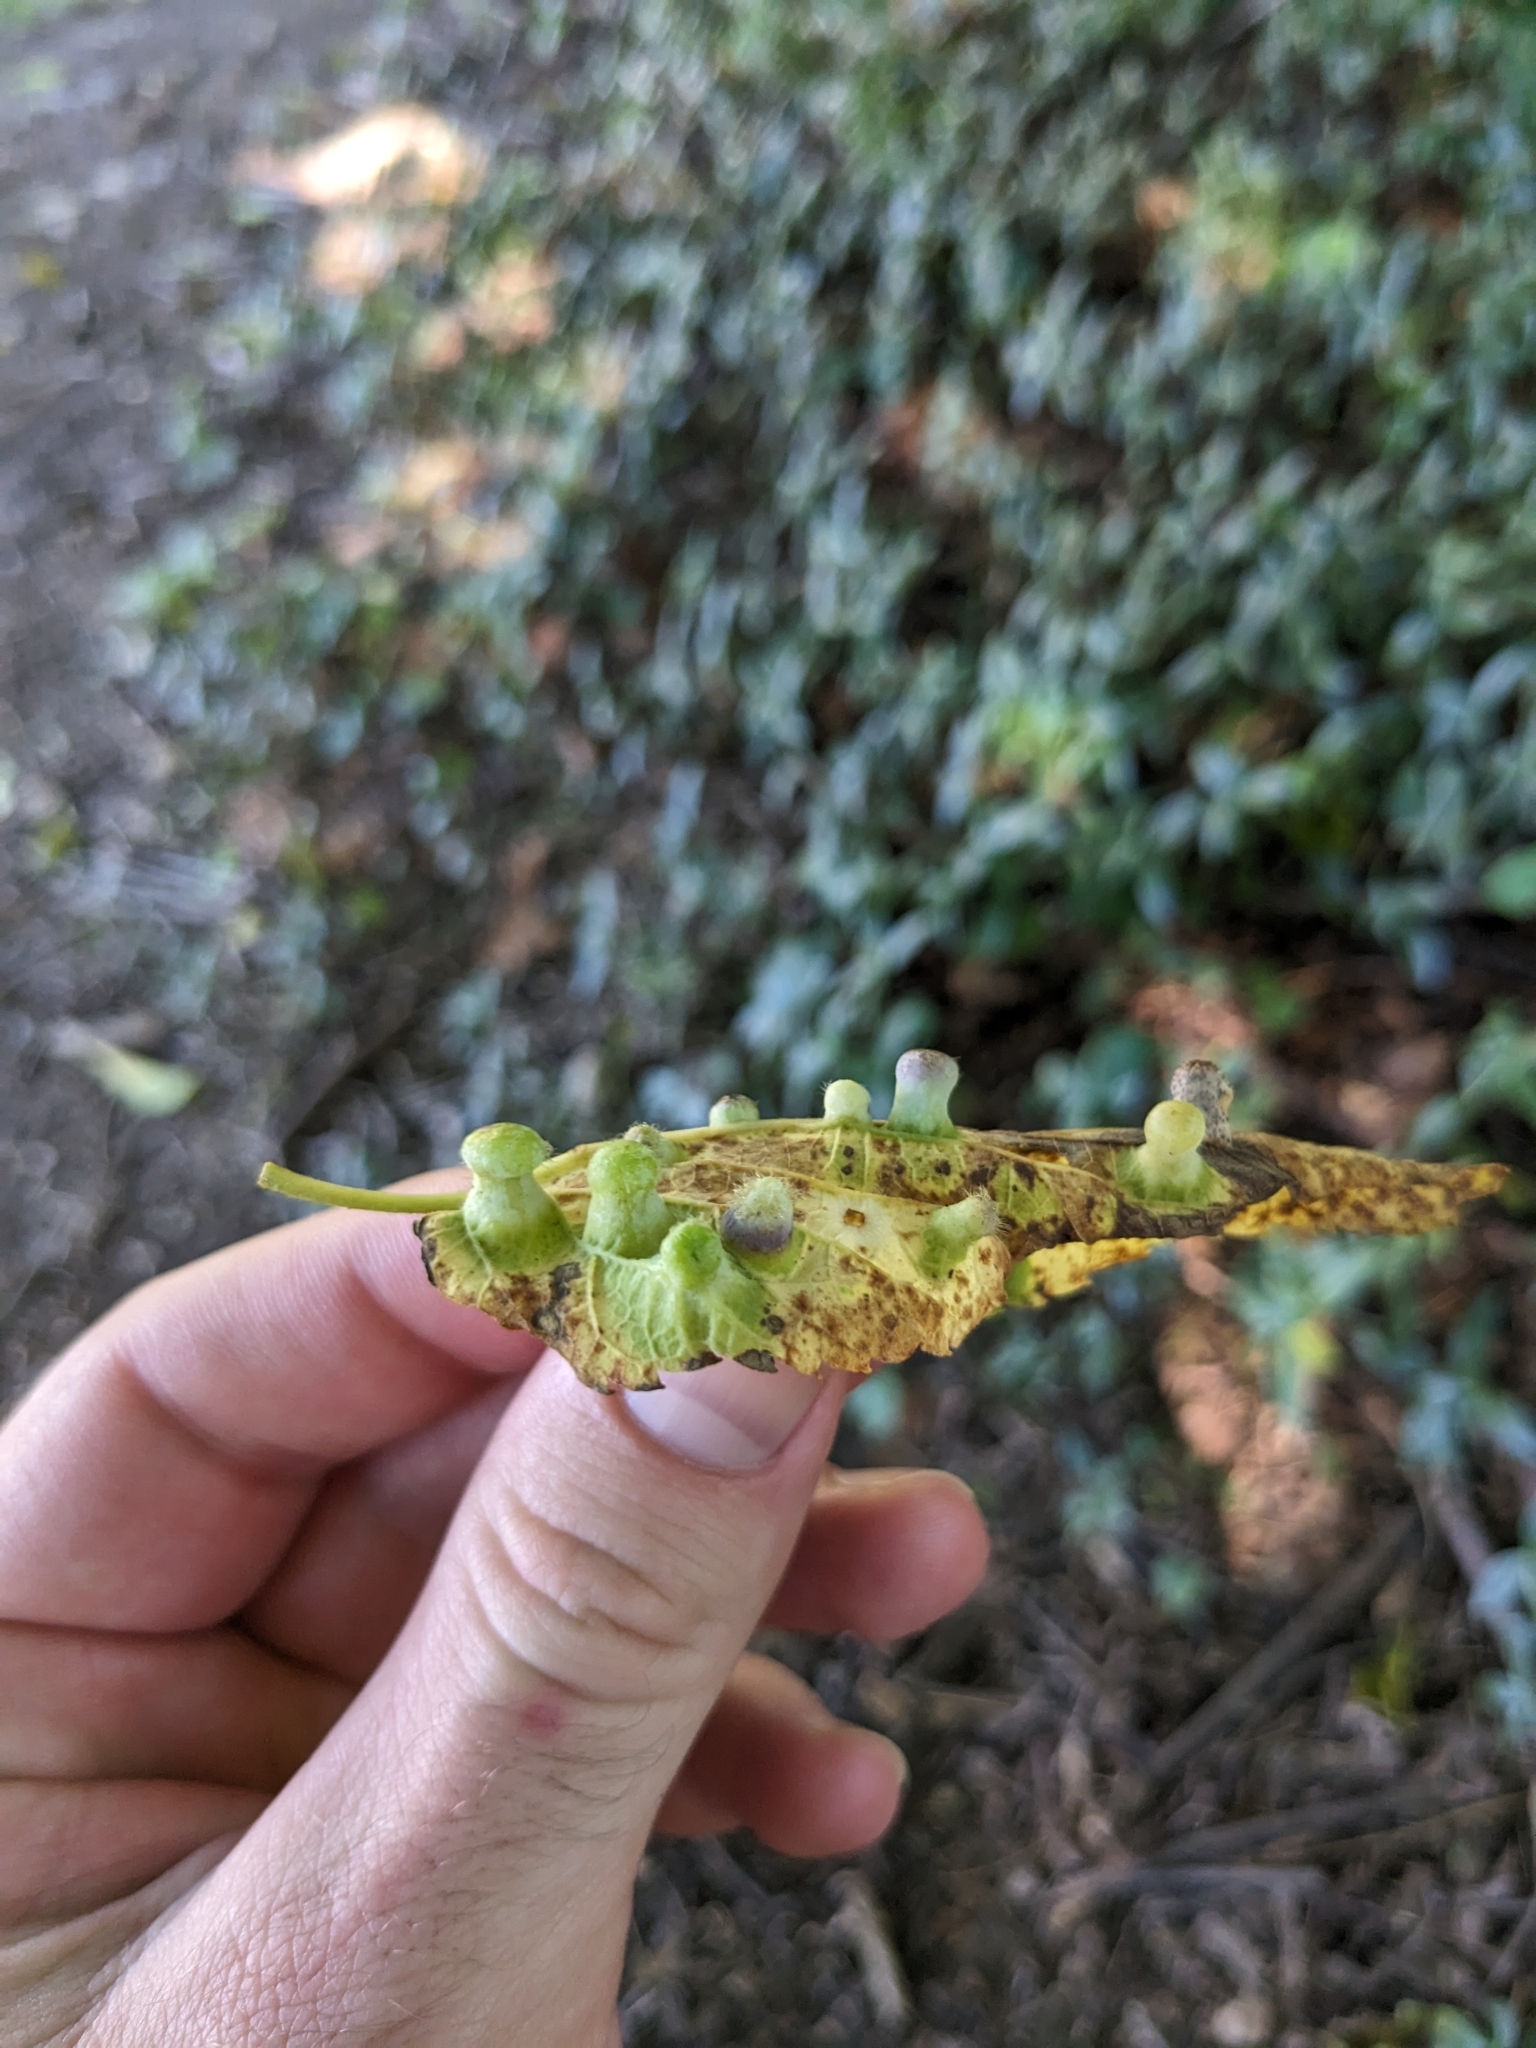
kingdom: Animalia
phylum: Arthropoda
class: Insecta
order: Hemiptera
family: Aphalaridae
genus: Pachypsylla
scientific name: Pachypsylla celtidismamma
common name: Hackberry nipplegall psyllid
